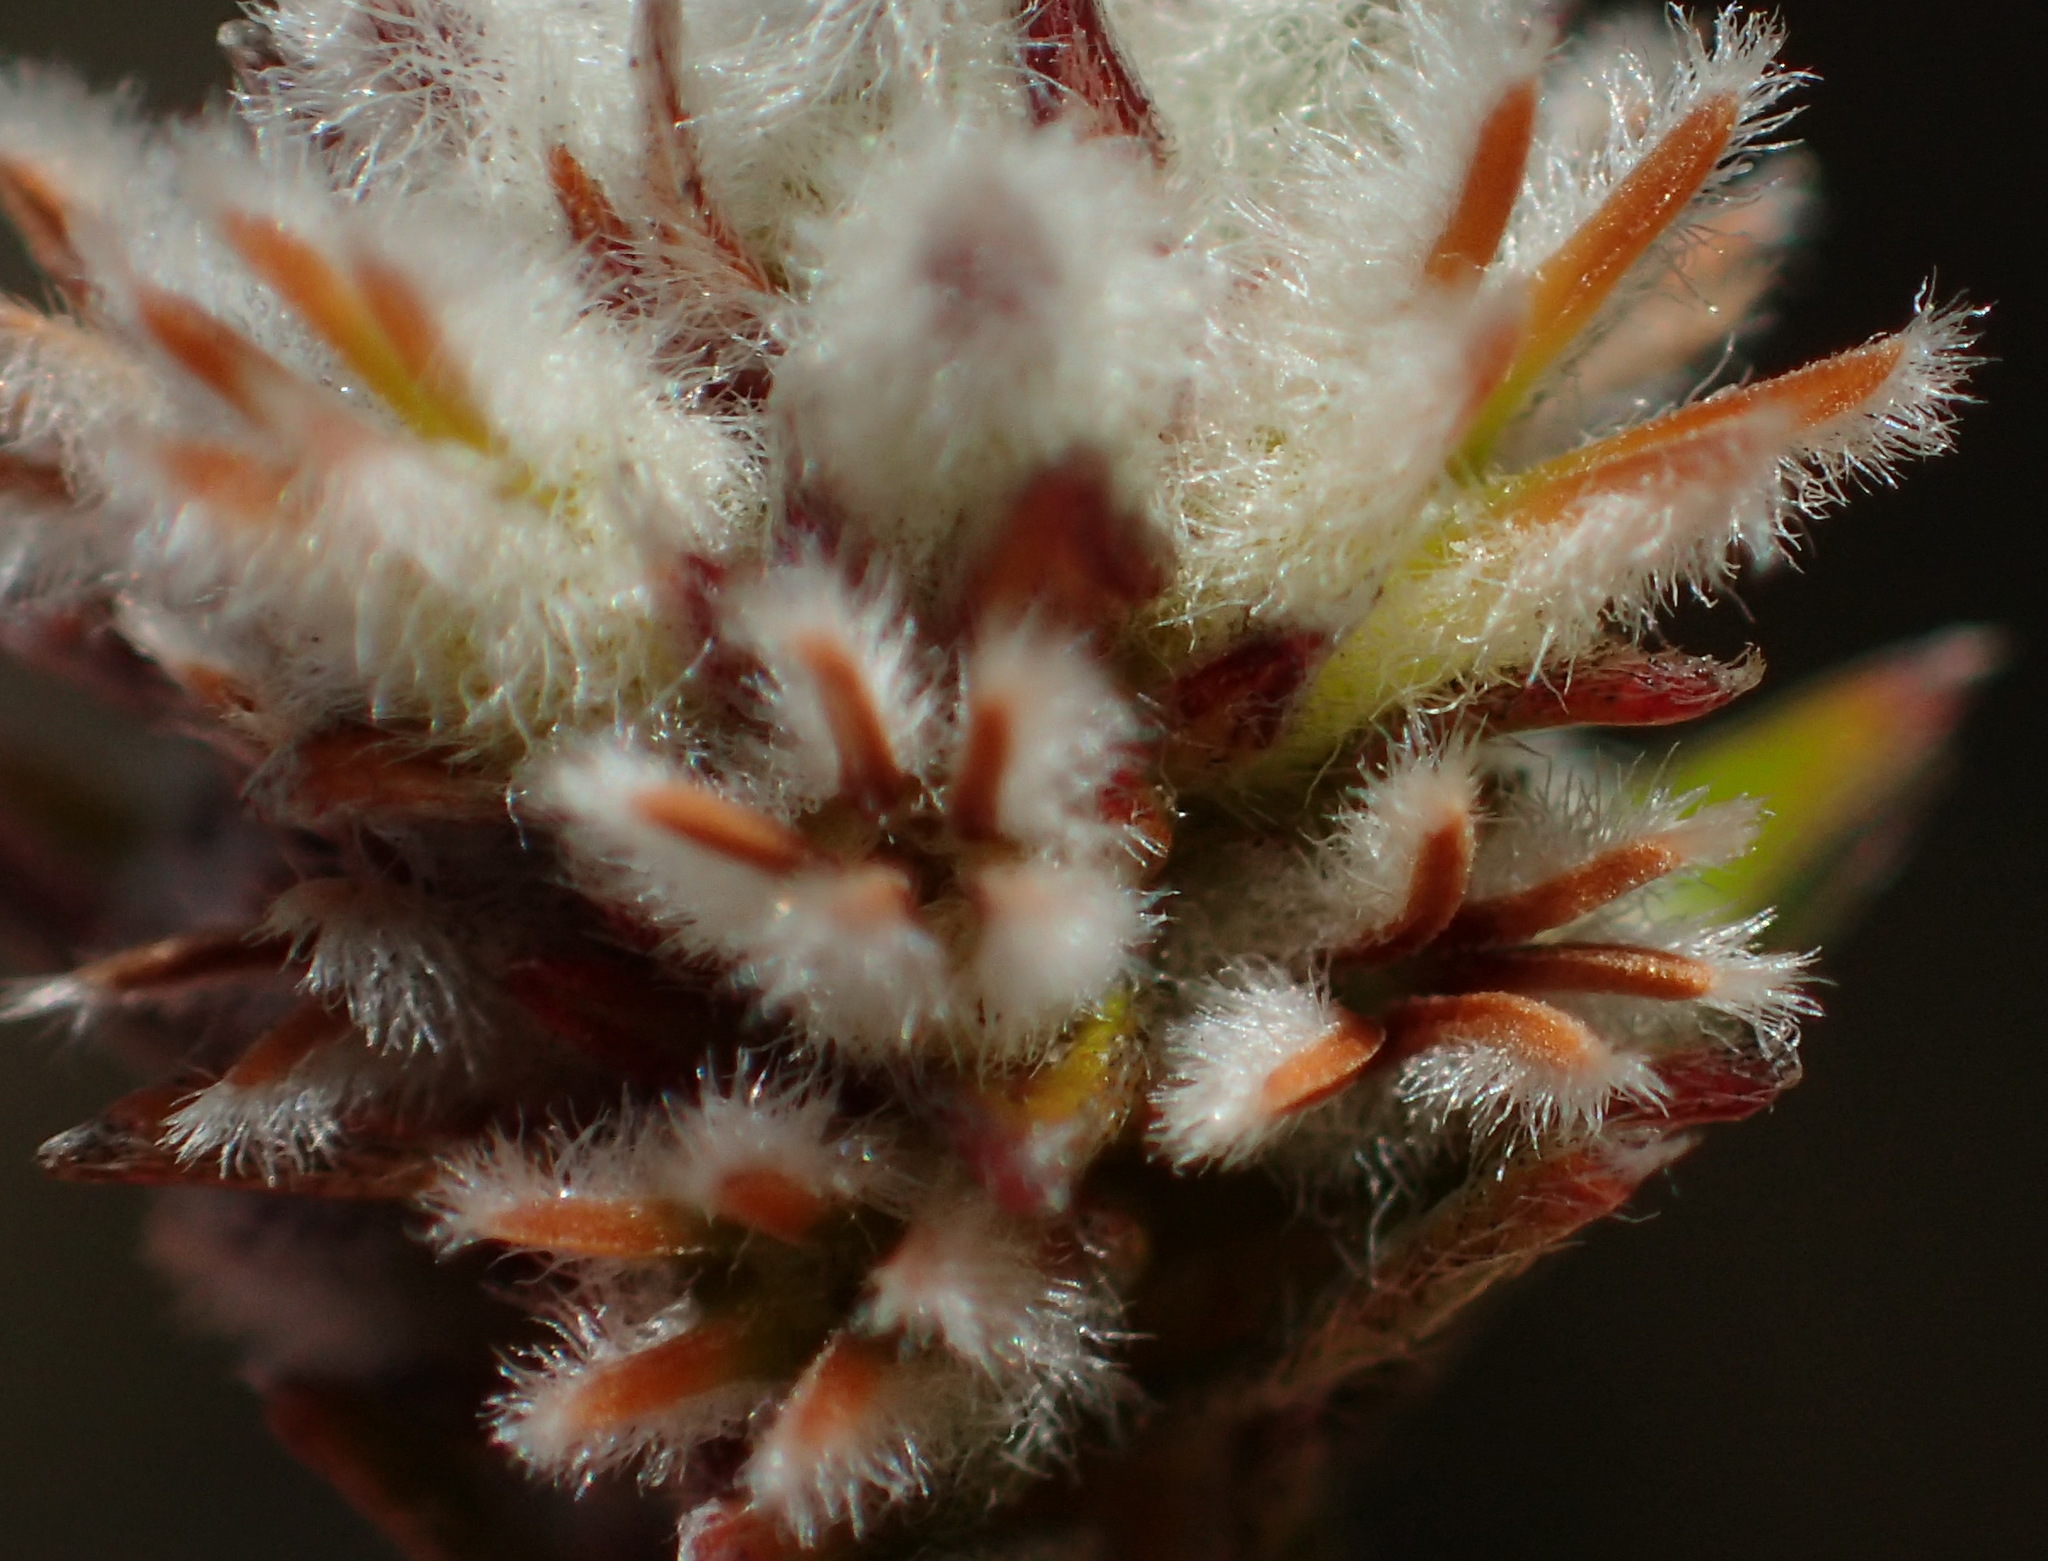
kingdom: Plantae
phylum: Tracheophyta
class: Magnoliopsida
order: Rosales
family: Rhamnaceae
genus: Phylica
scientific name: Phylica agathosmoides
